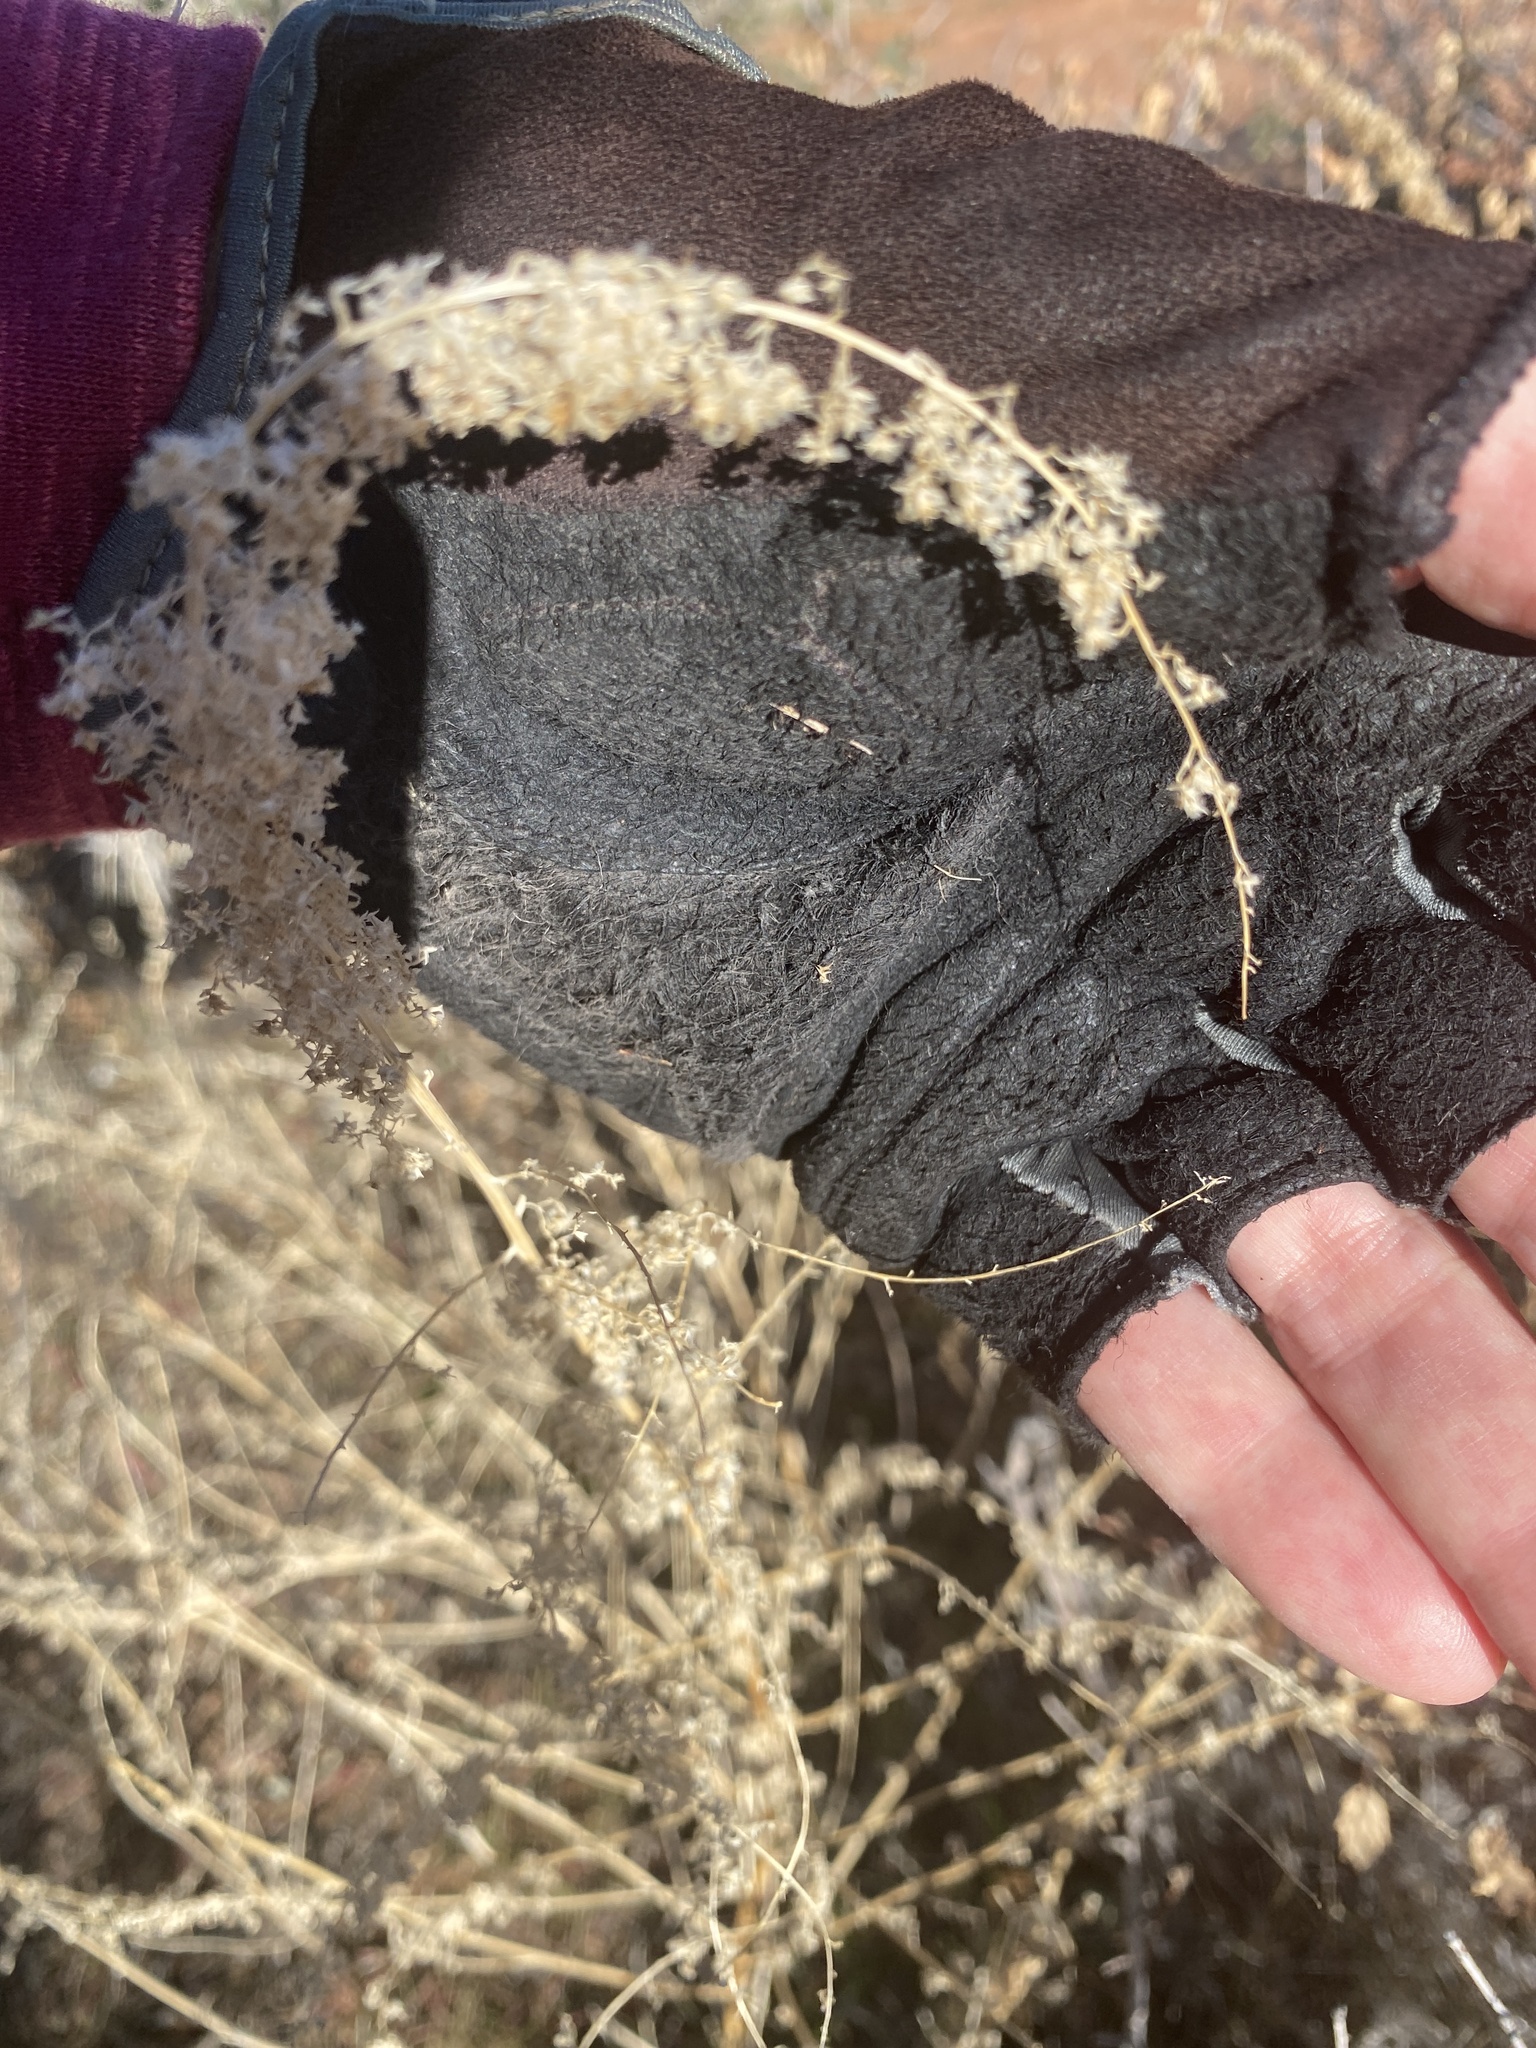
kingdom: Plantae
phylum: Tracheophyta
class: Magnoliopsida
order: Caryophyllales
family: Amaranthaceae
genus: Amaranthus
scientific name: Amaranthus fimbriatus
